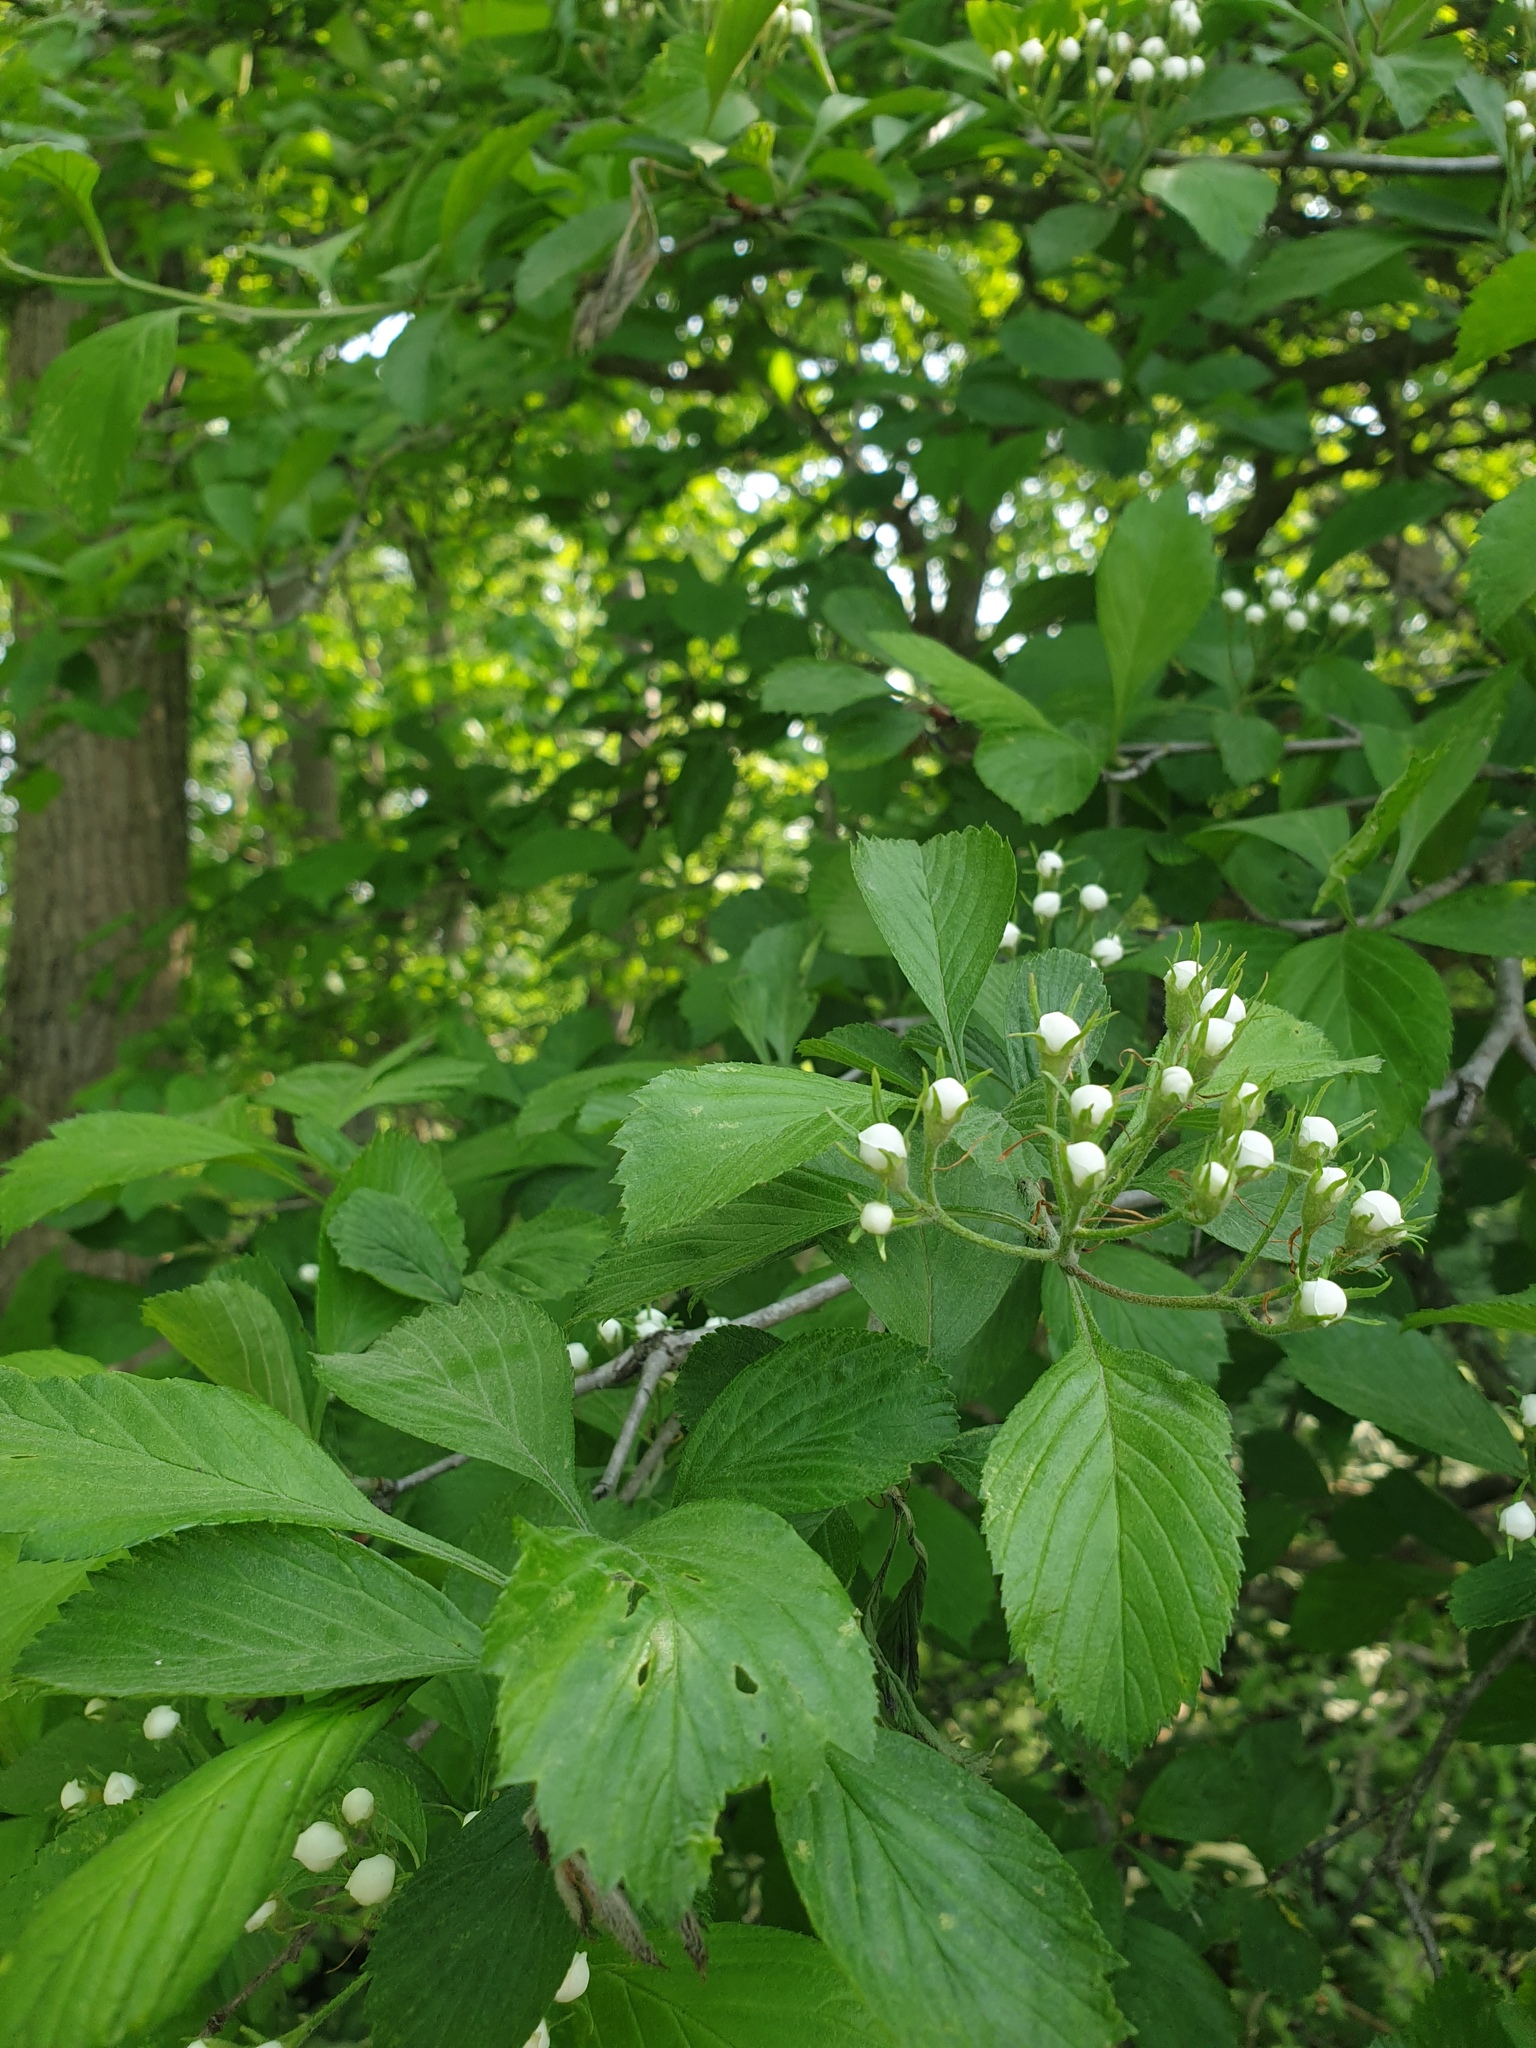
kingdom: Plantae
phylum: Tracheophyta
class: Magnoliopsida
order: Rosales
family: Rosaceae
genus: Crataegus
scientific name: Crataegus punctata
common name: Dotted hawthorn
